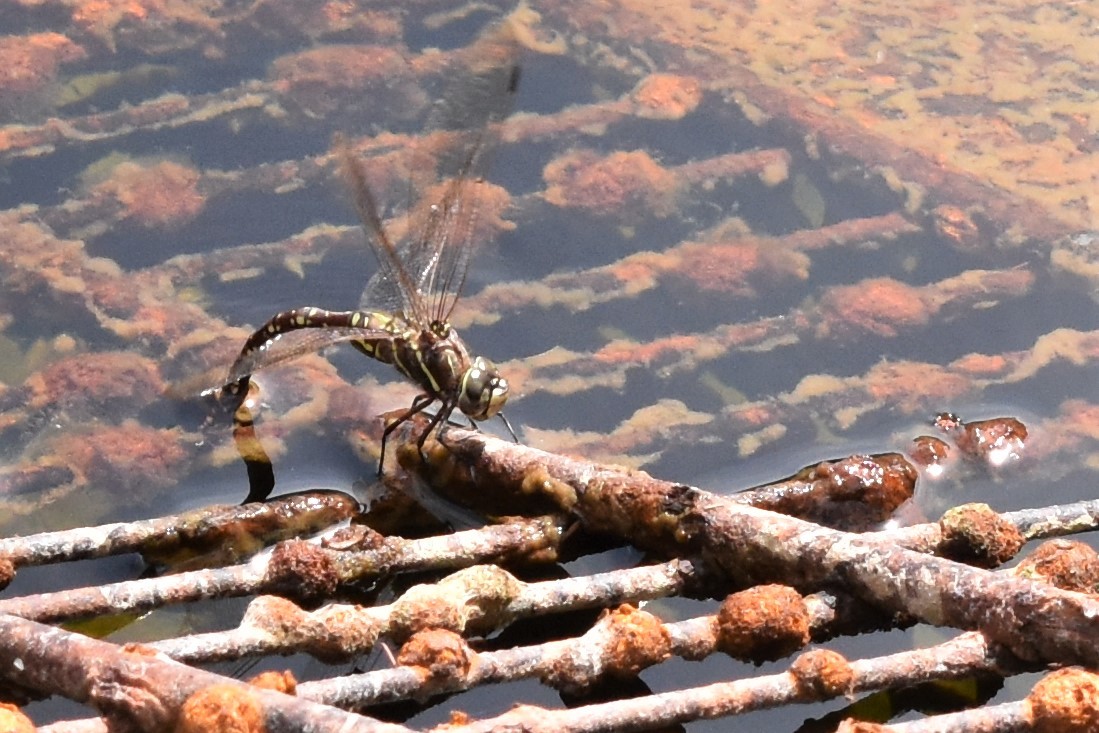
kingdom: Animalia
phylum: Arthropoda
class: Insecta
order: Odonata
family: Aeshnidae
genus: Aeshna
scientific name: Aeshna brevistyla
